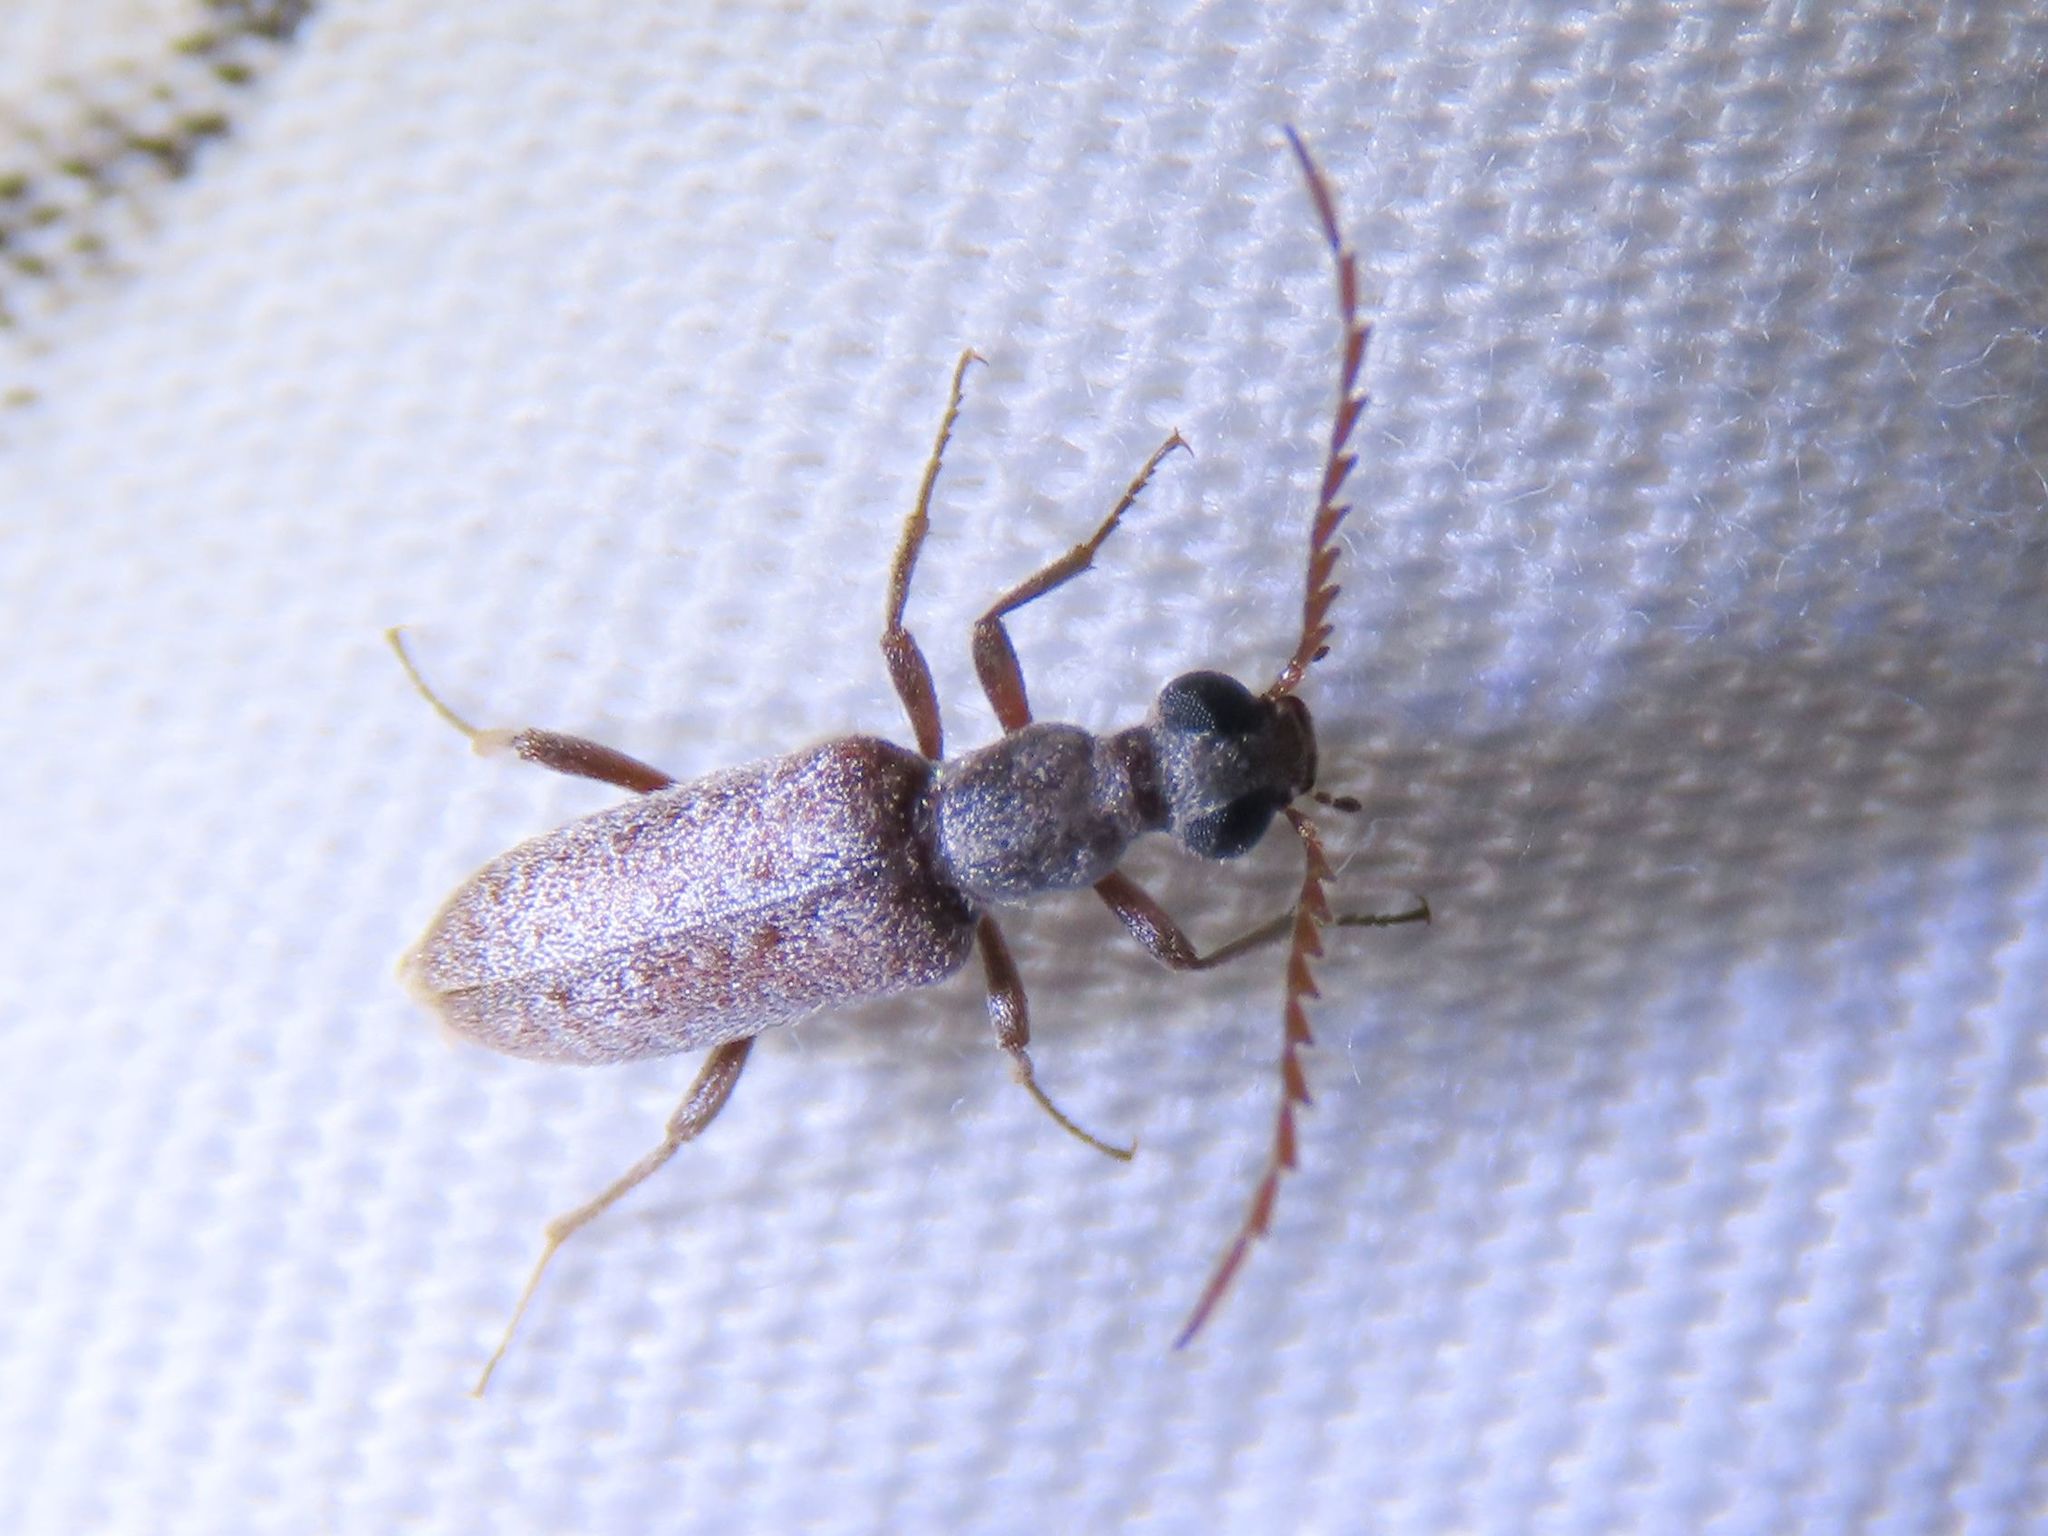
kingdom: Animalia
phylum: Arthropoda
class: Insecta
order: Coleoptera
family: Anthicidae
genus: Leptoremus
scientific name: Leptoremus argenteus
